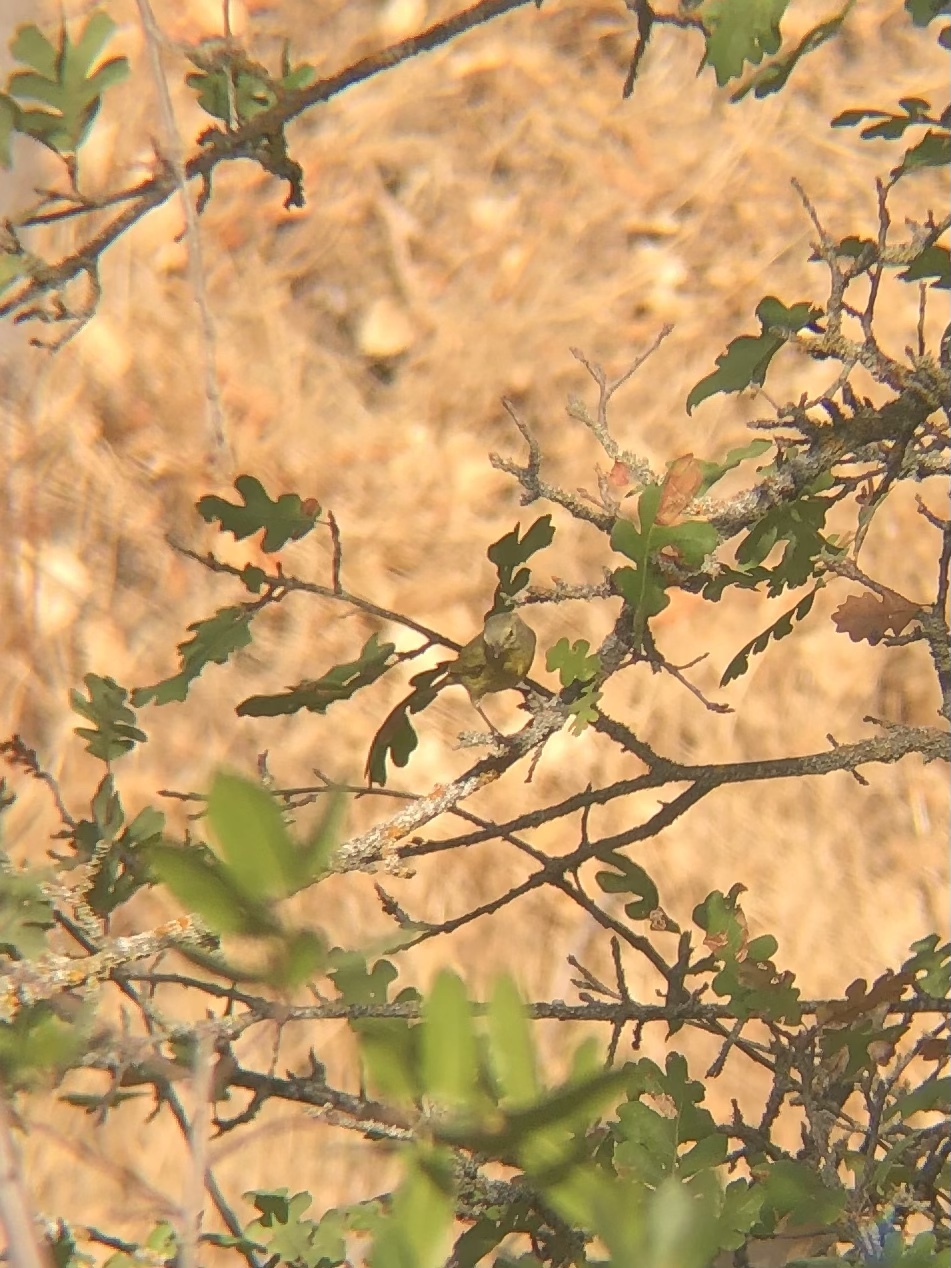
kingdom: Animalia
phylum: Chordata
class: Aves
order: Passeriformes
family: Parulidae
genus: Leiothlypis
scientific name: Leiothlypis celata
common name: Orange-crowned warbler
